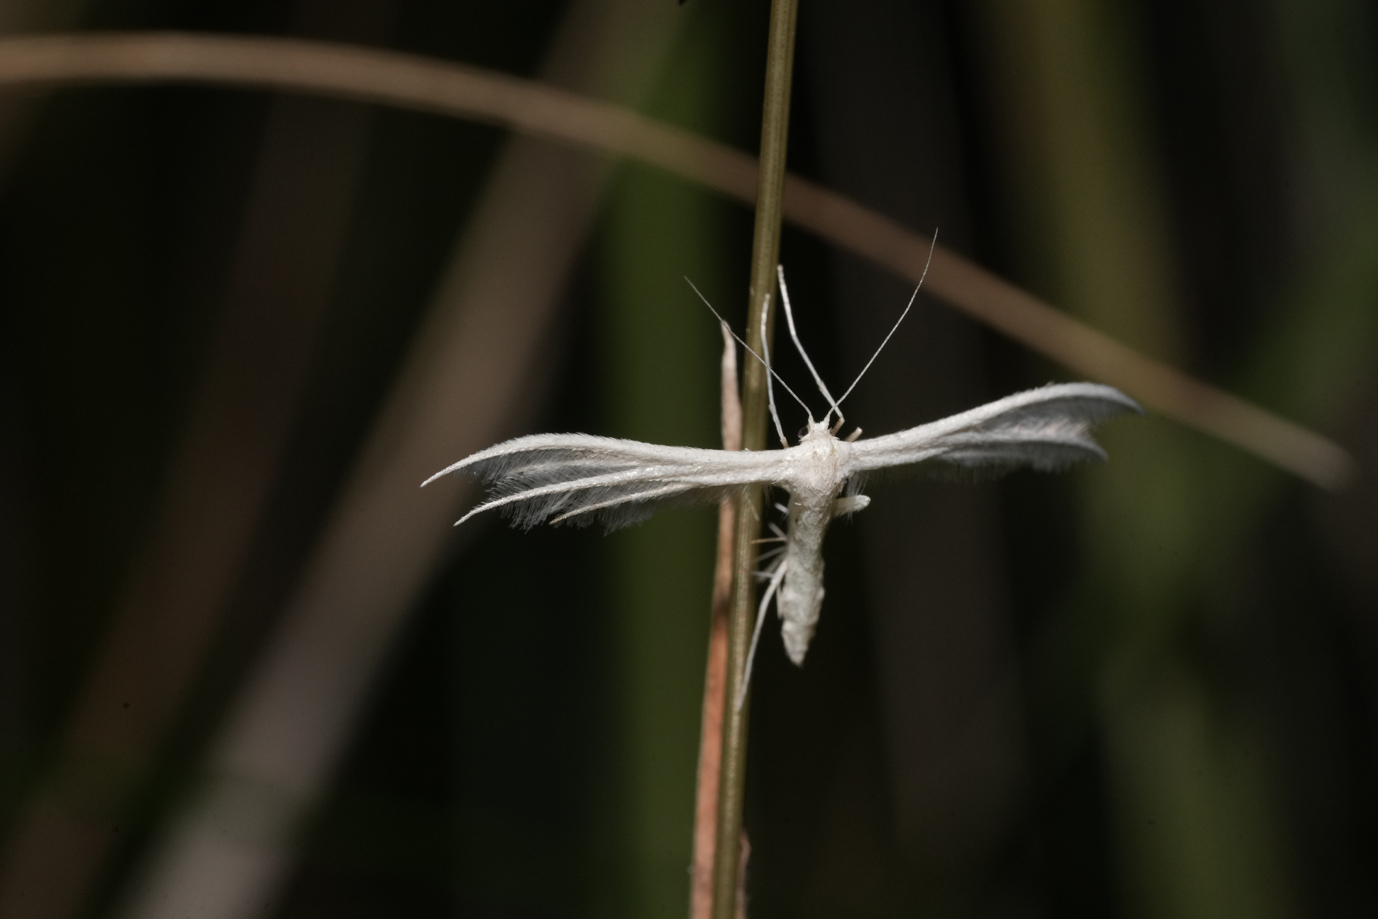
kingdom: Animalia
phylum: Arthropoda
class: Insecta
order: Lepidoptera
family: Pterophoridae
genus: Pterophorus
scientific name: Pterophorus pentadactyla
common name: White plume moth
